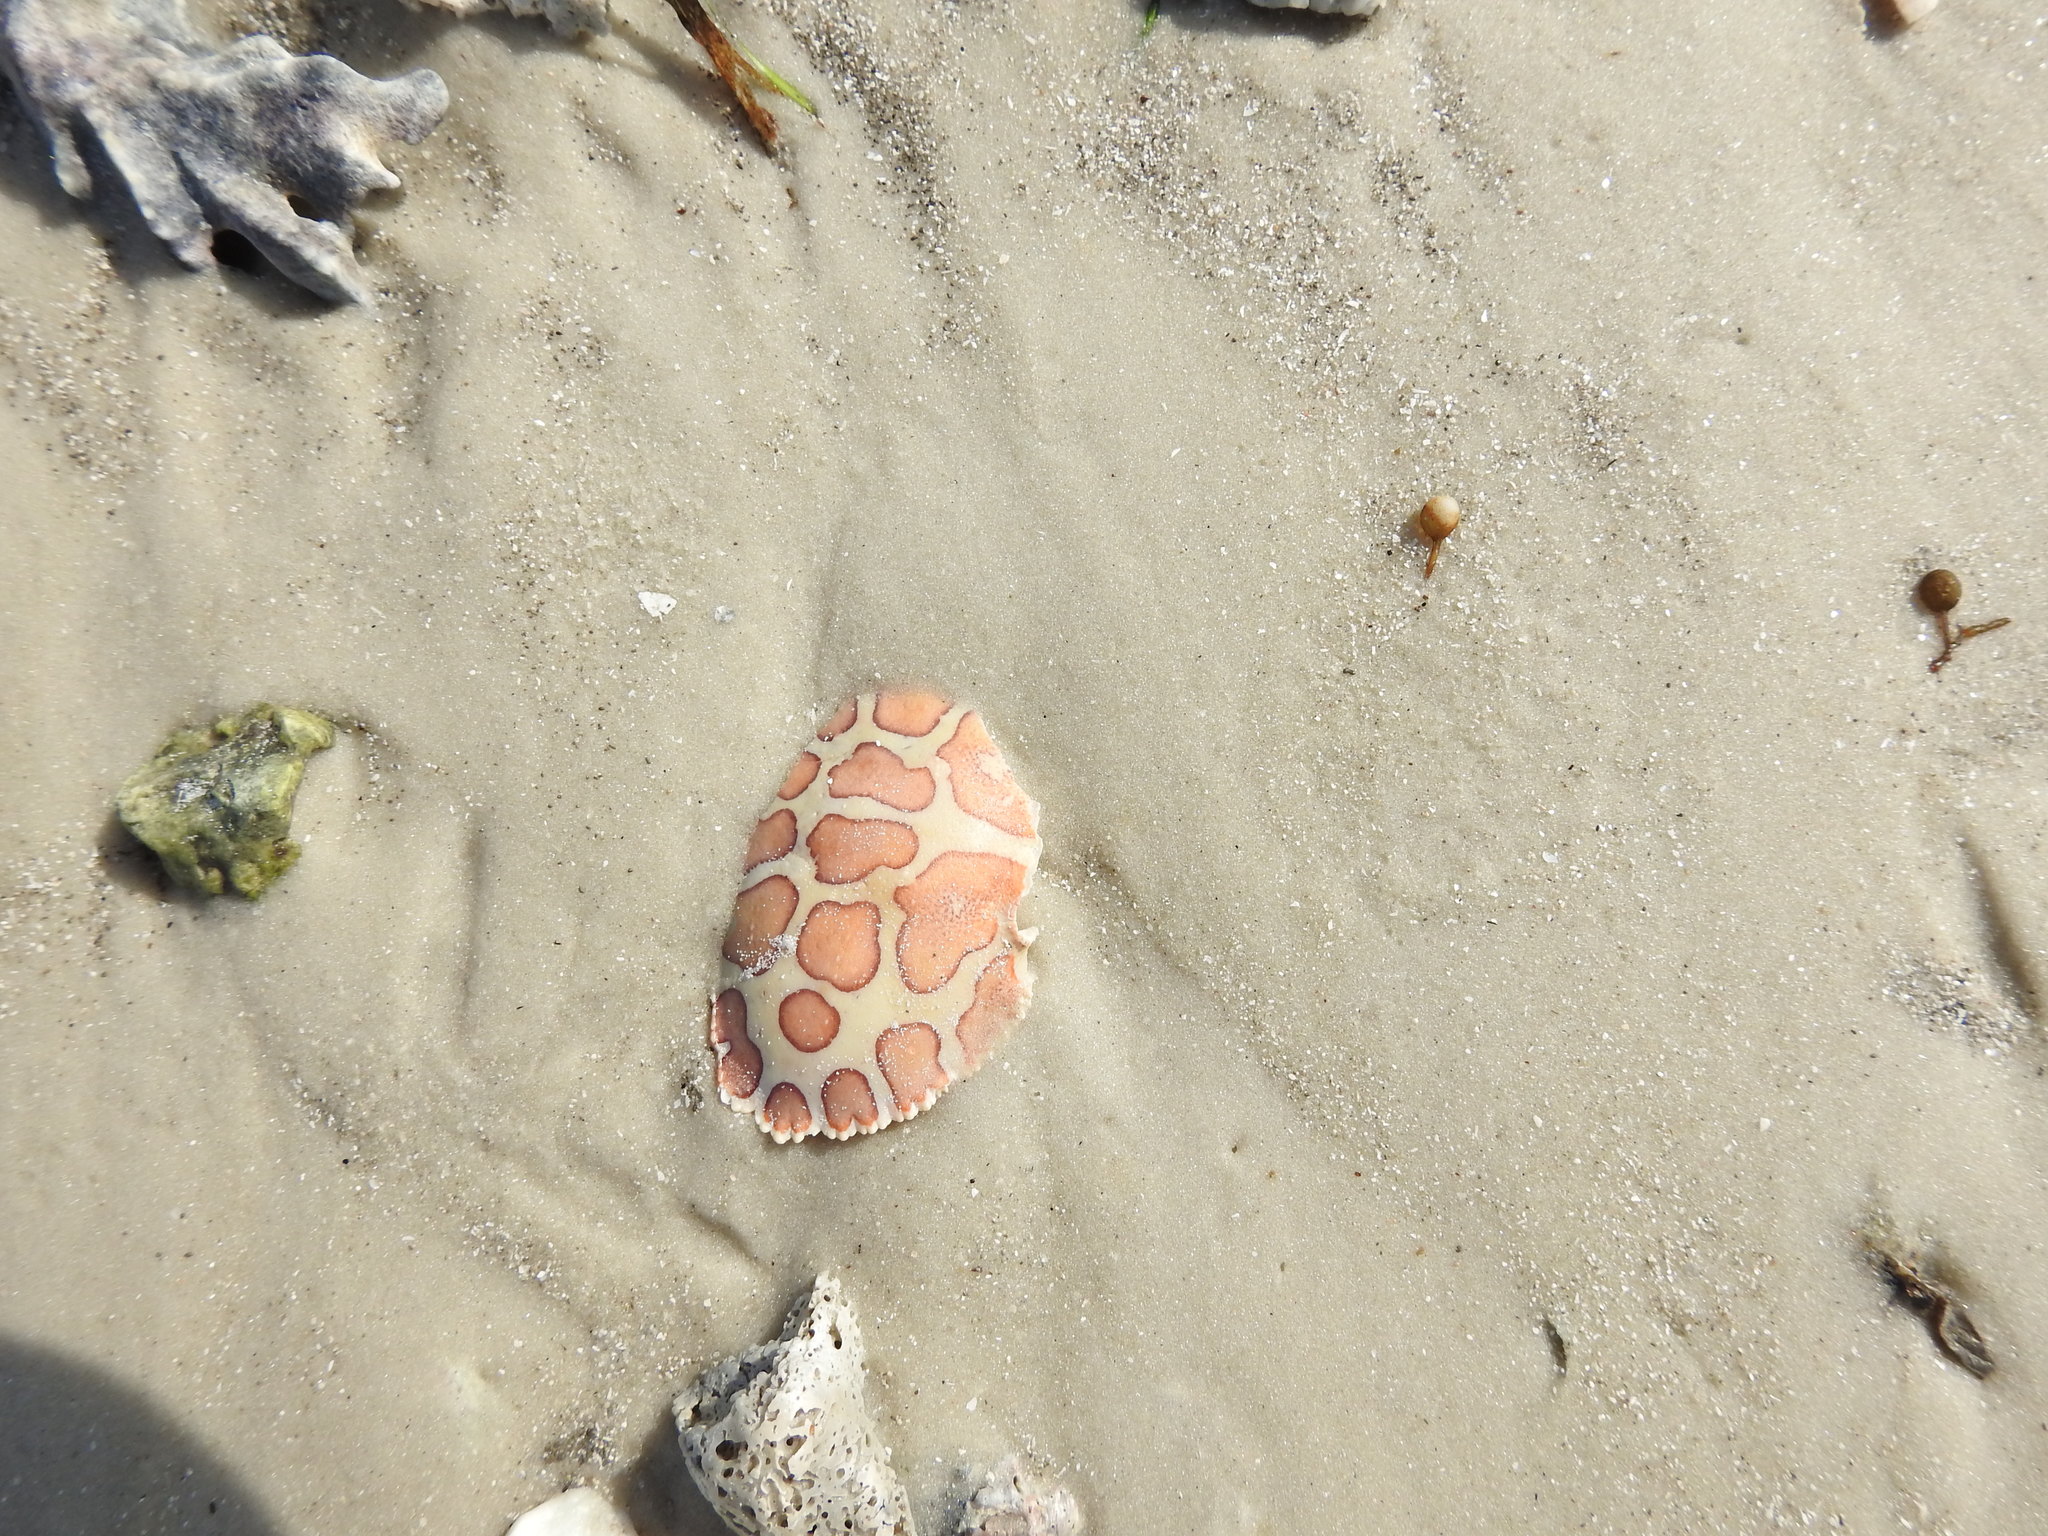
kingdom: Animalia
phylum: Arthropoda
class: Malacostraca
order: Decapoda
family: Aethridae
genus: Hepatus
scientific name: Hepatus epheliticus
